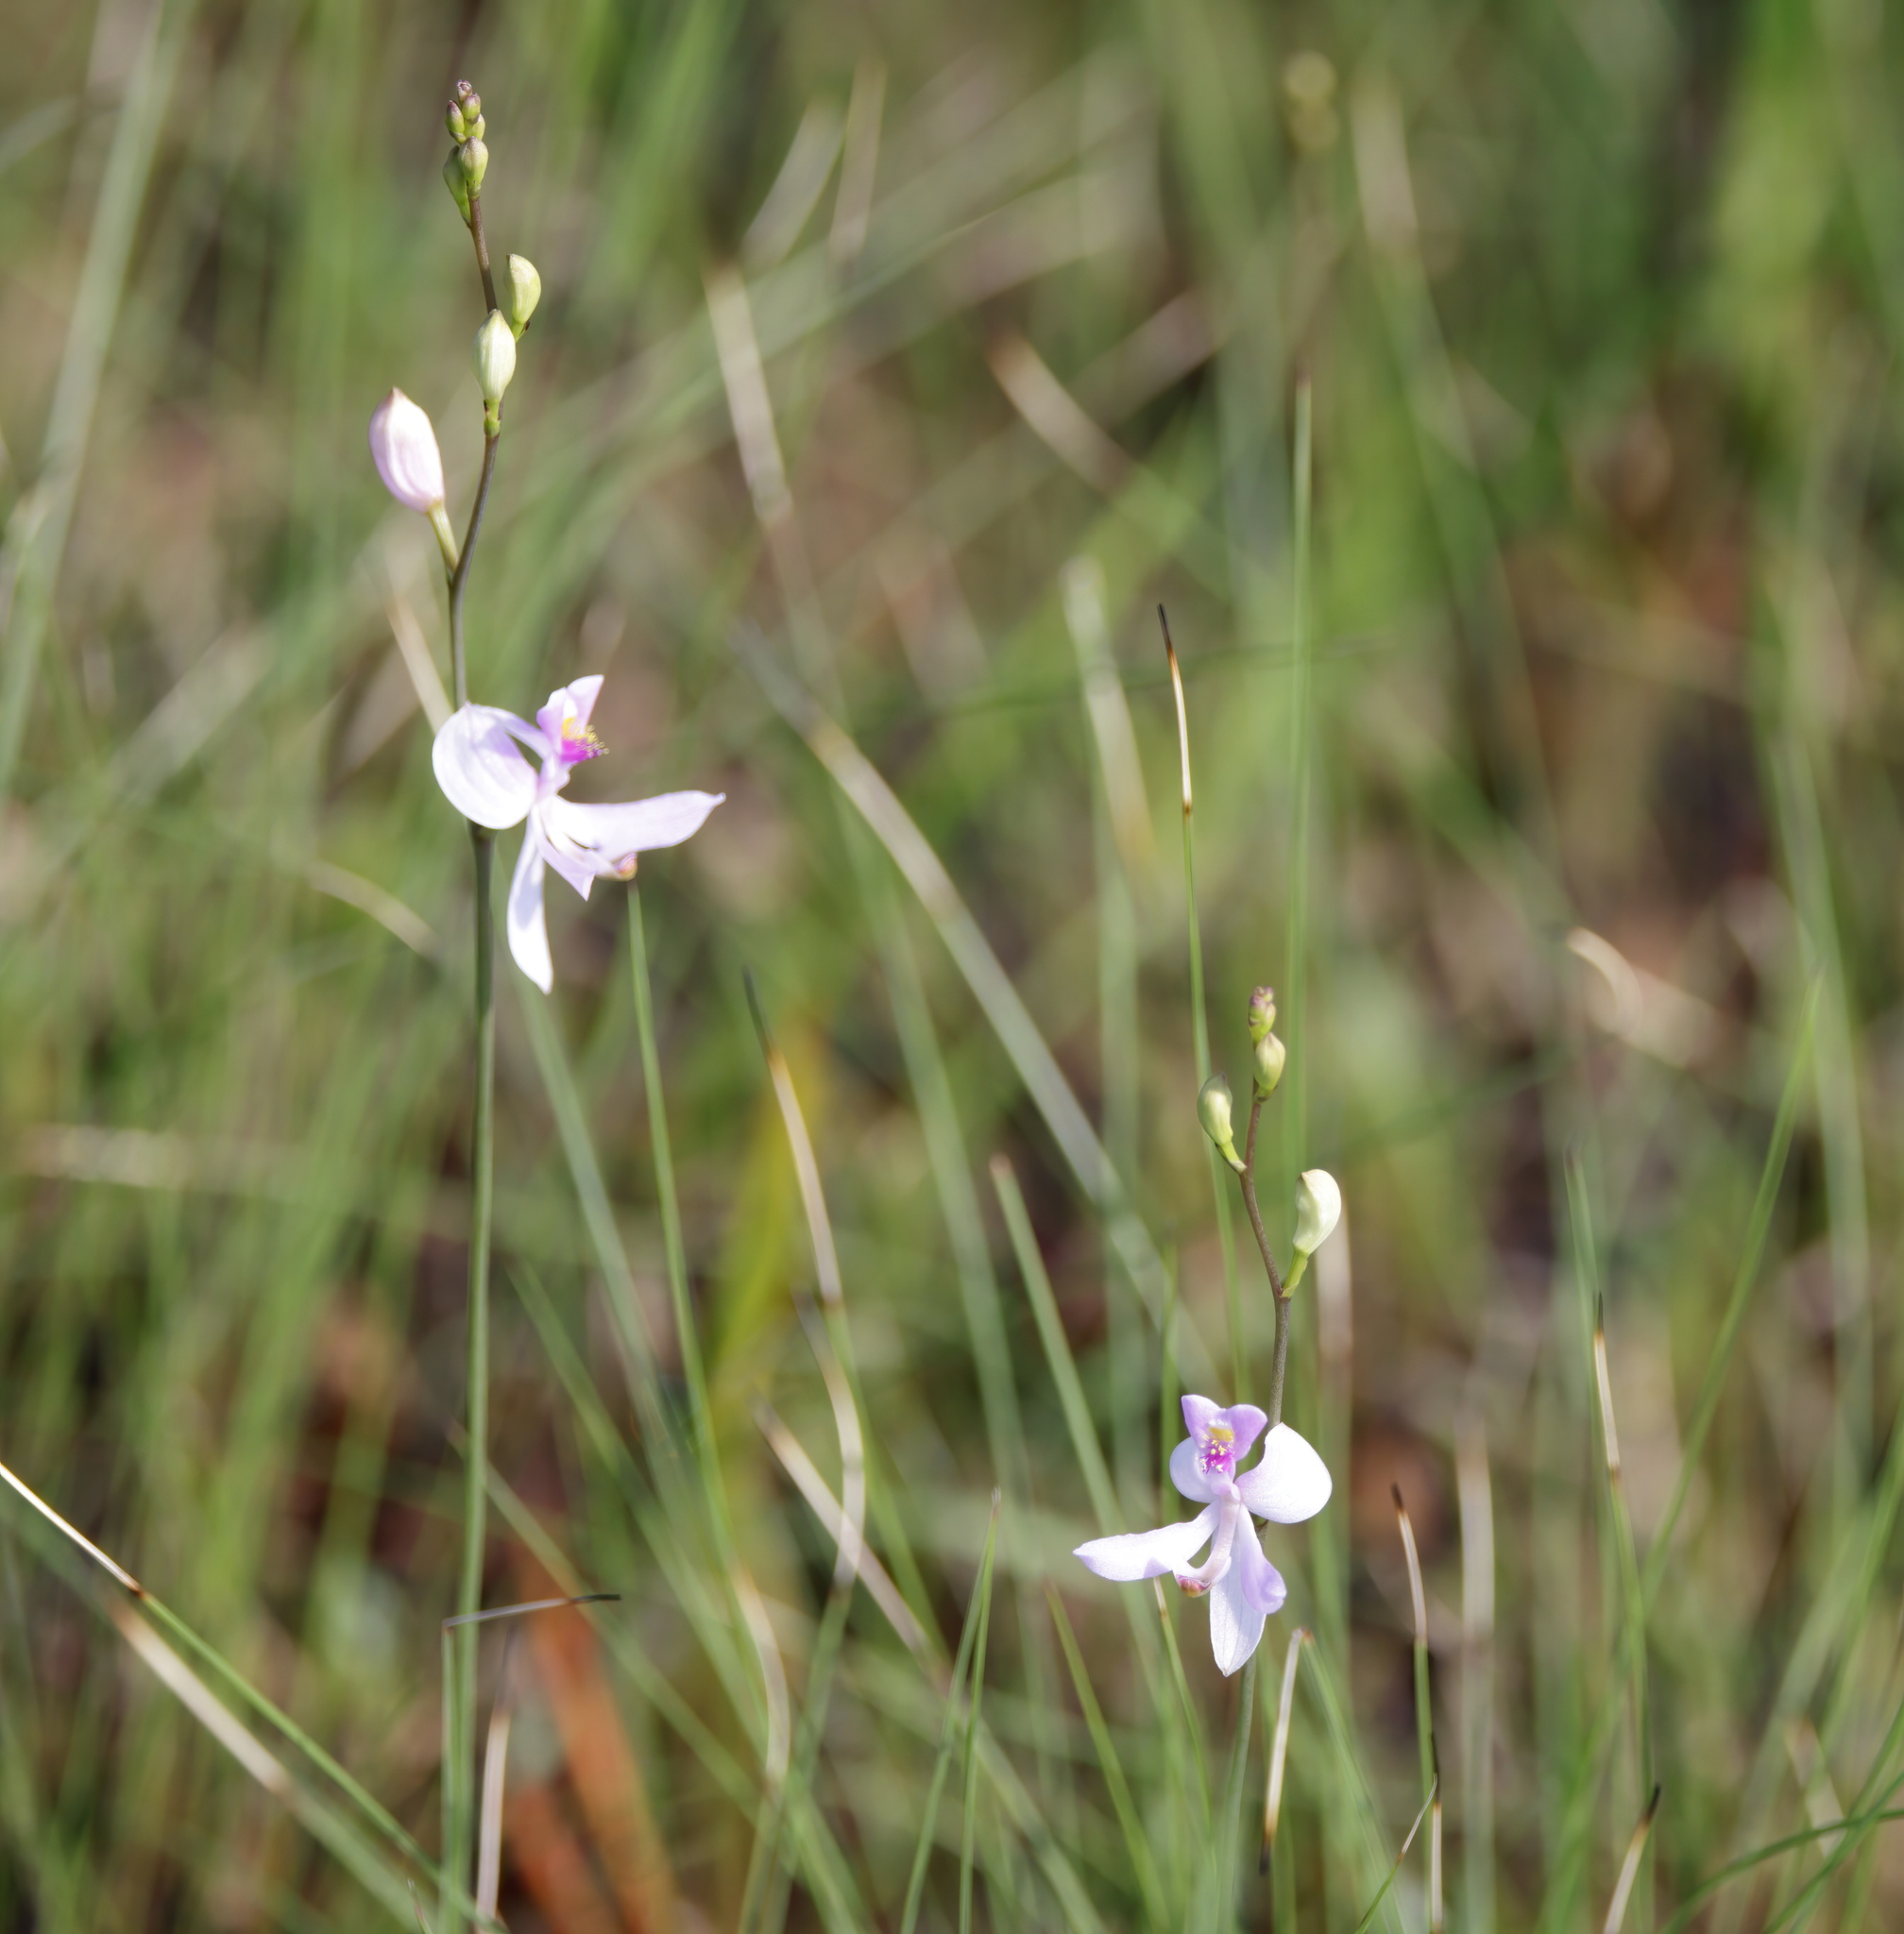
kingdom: Plantae
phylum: Tracheophyta
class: Liliopsida
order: Asparagales
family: Orchidaceae
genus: Calopogon
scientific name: Calopogon pallidus
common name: Pale grasspink
